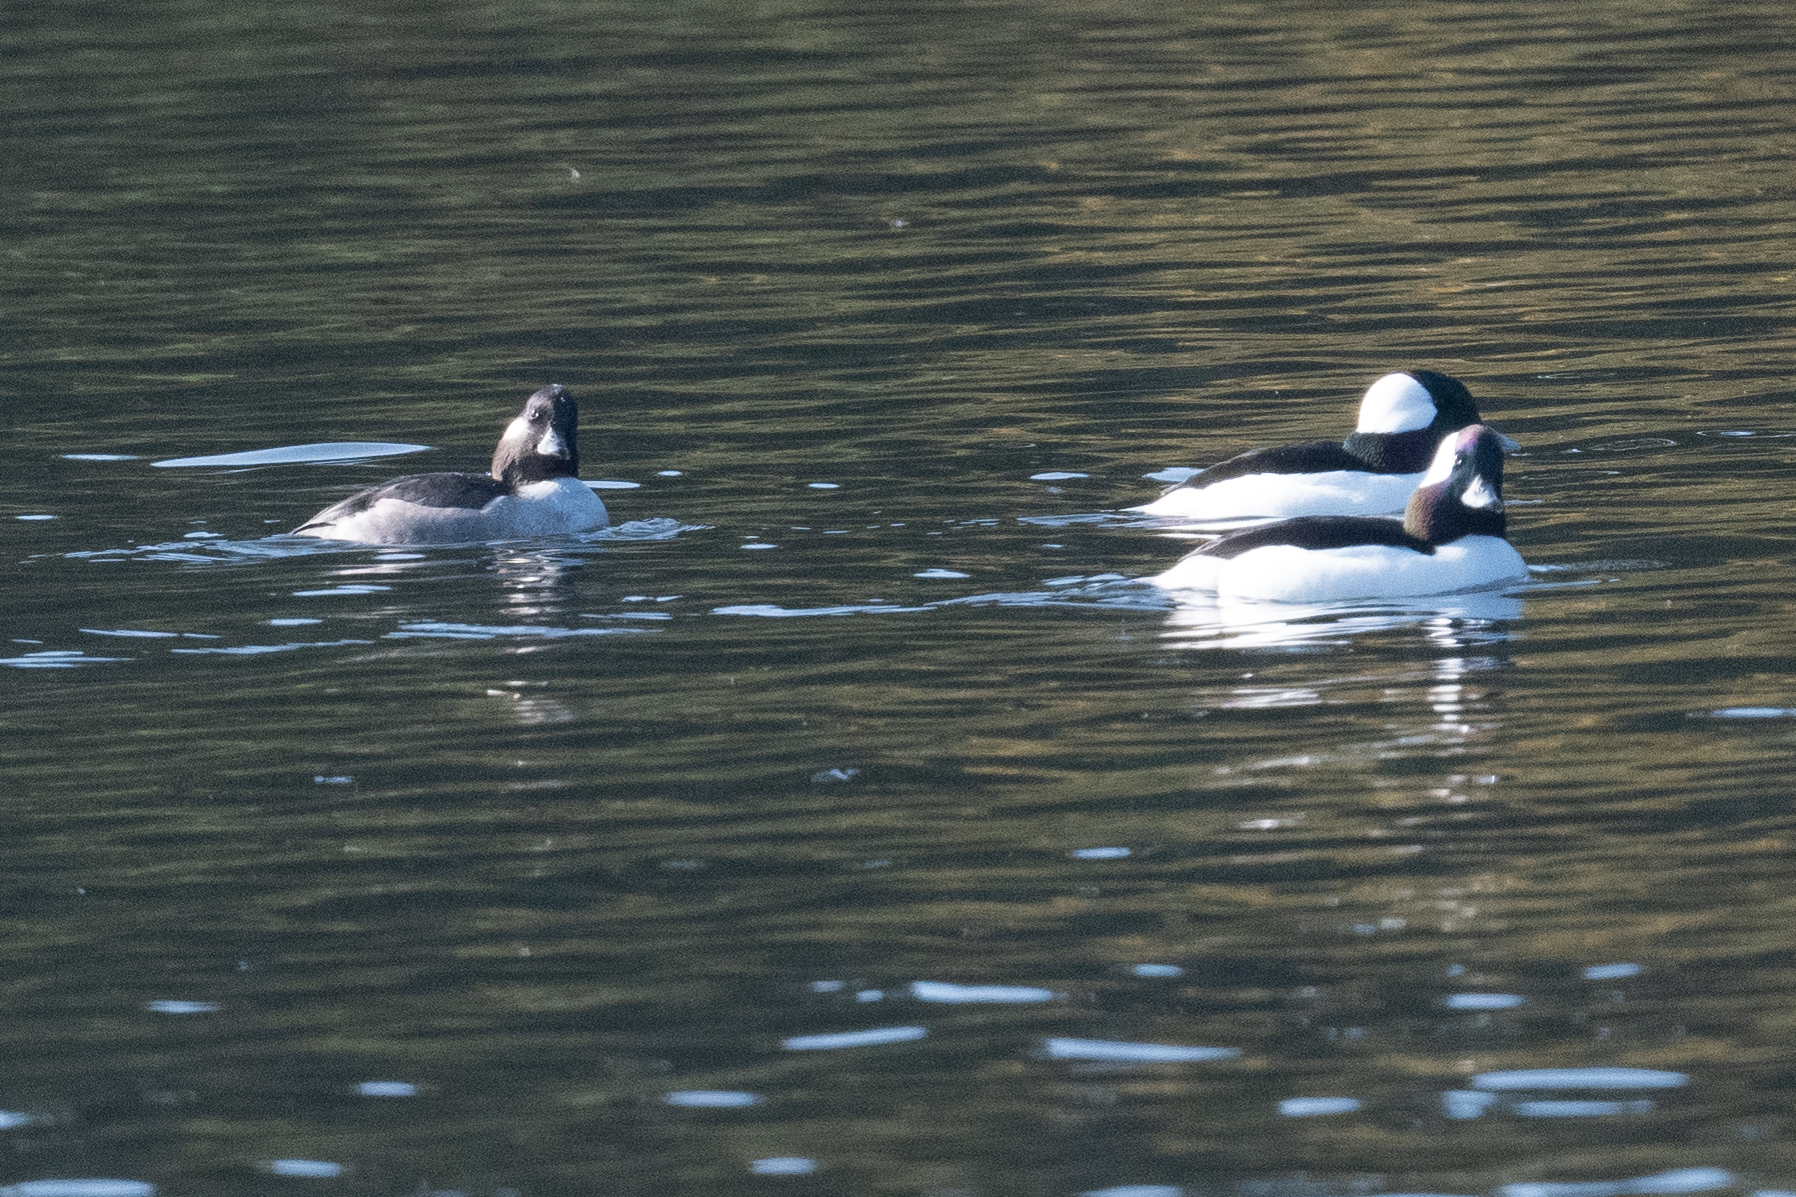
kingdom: Animalia
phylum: Chordata
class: Aves
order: Anseriformes
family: Anatidae
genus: Bucephala
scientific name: Bucephala albeola
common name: Bufflehead
